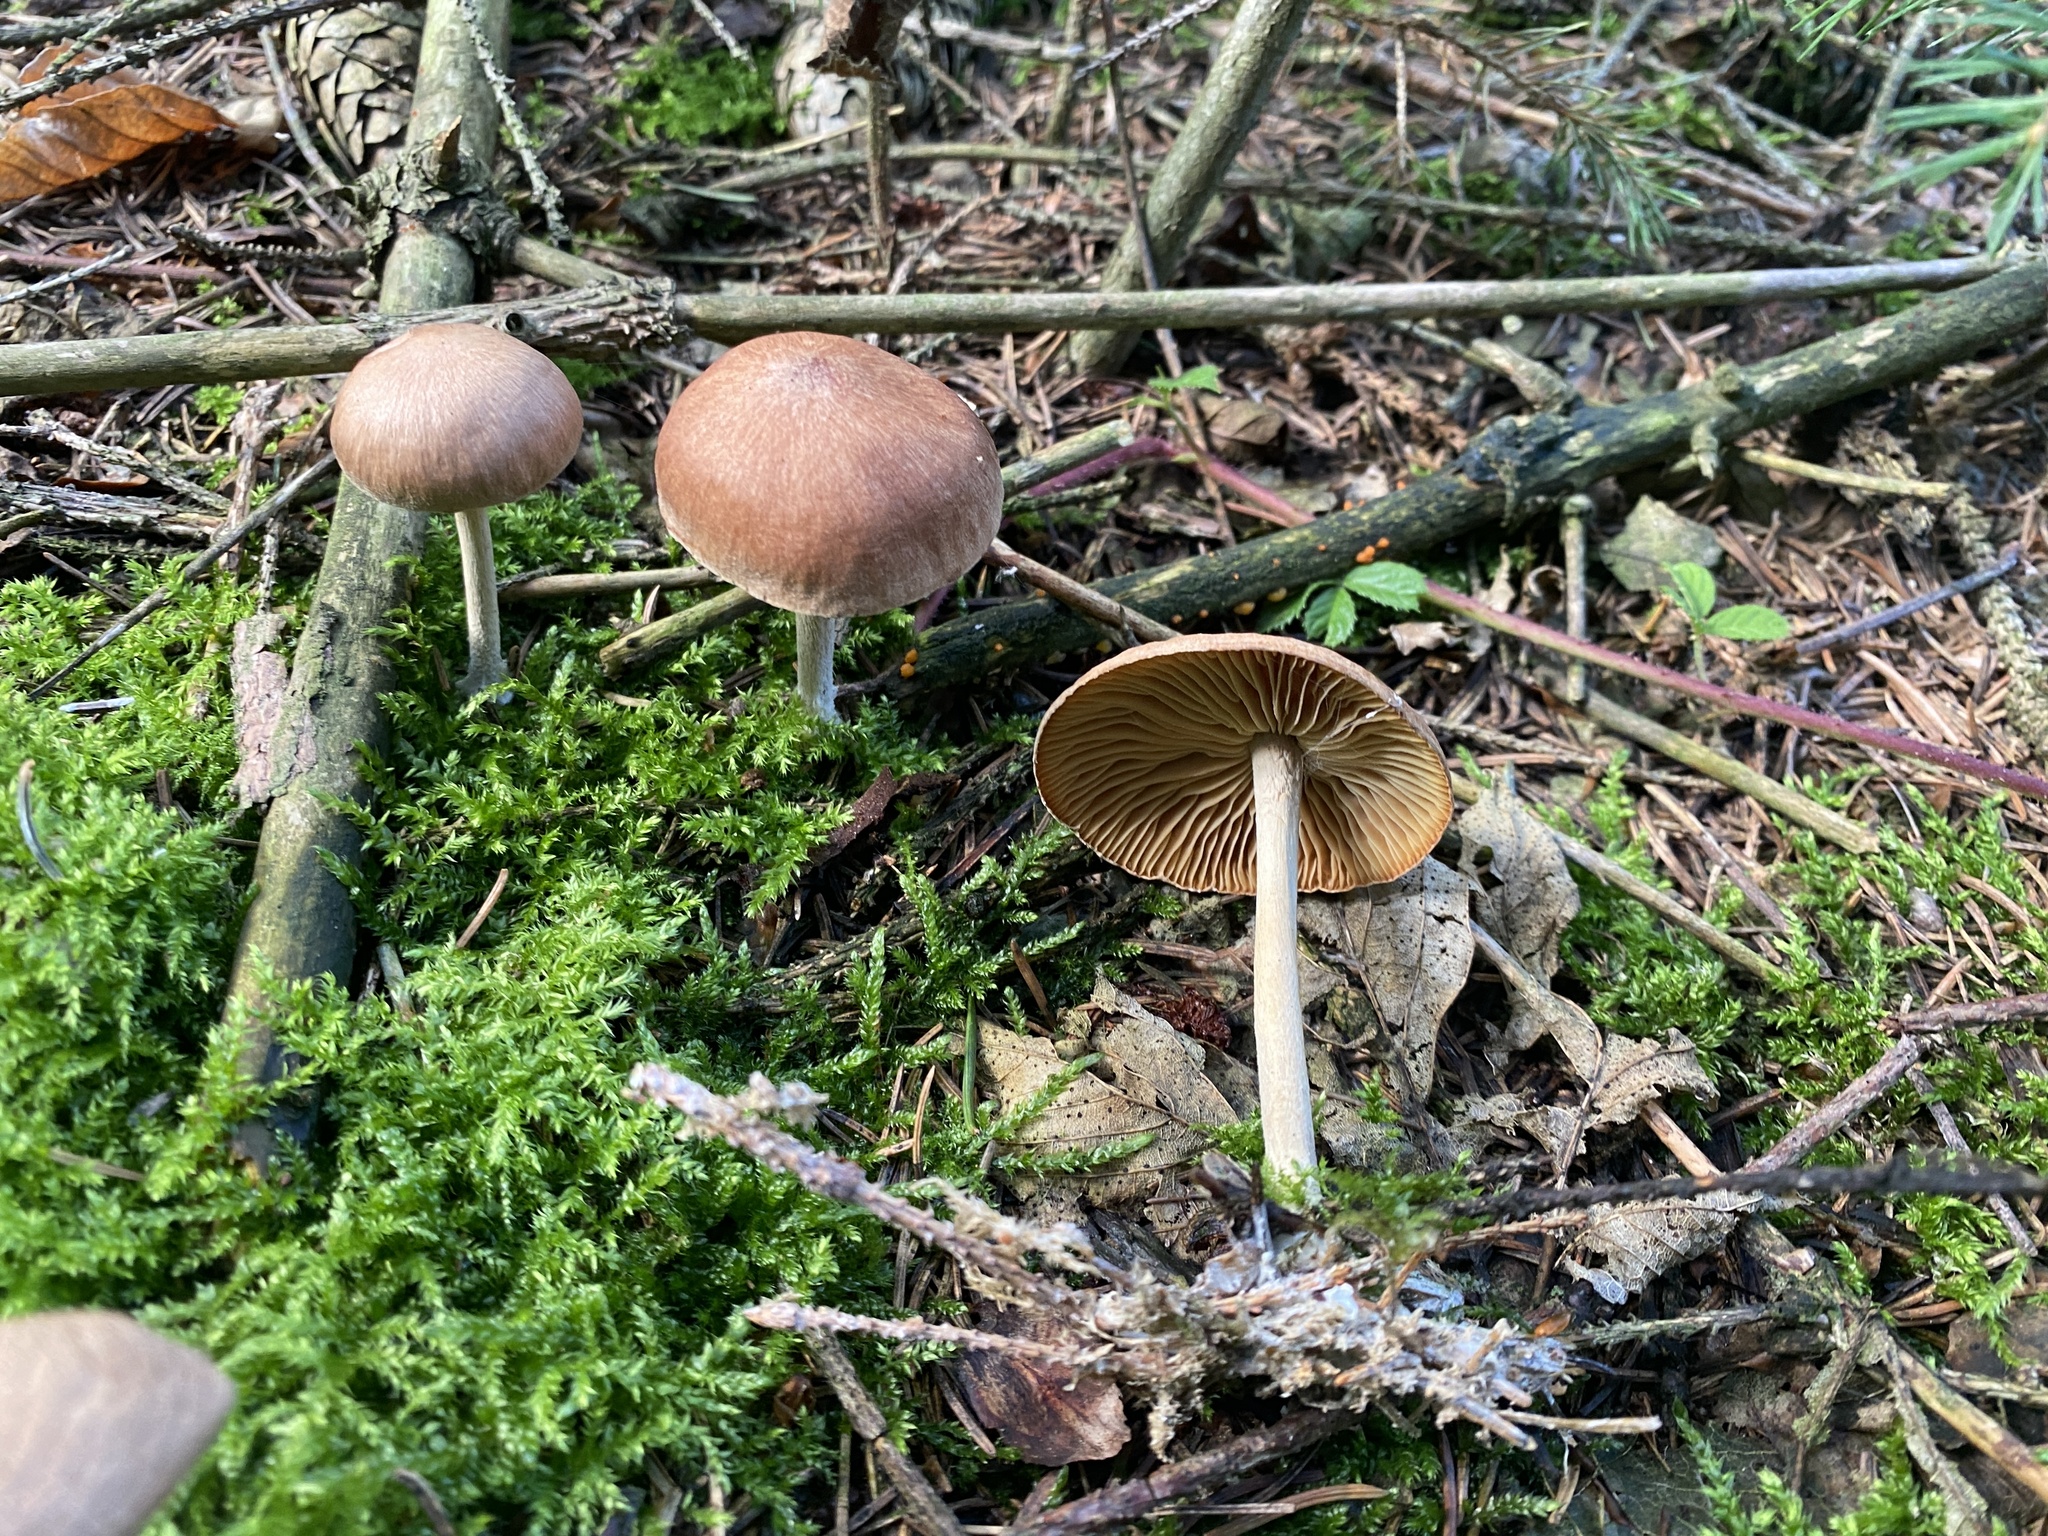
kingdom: Fungi
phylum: Basidiomycota
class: Agaricomycetes
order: Agaricales
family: Omphalotaceae
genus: Collybiopsis
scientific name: Collybiopsis peronata
